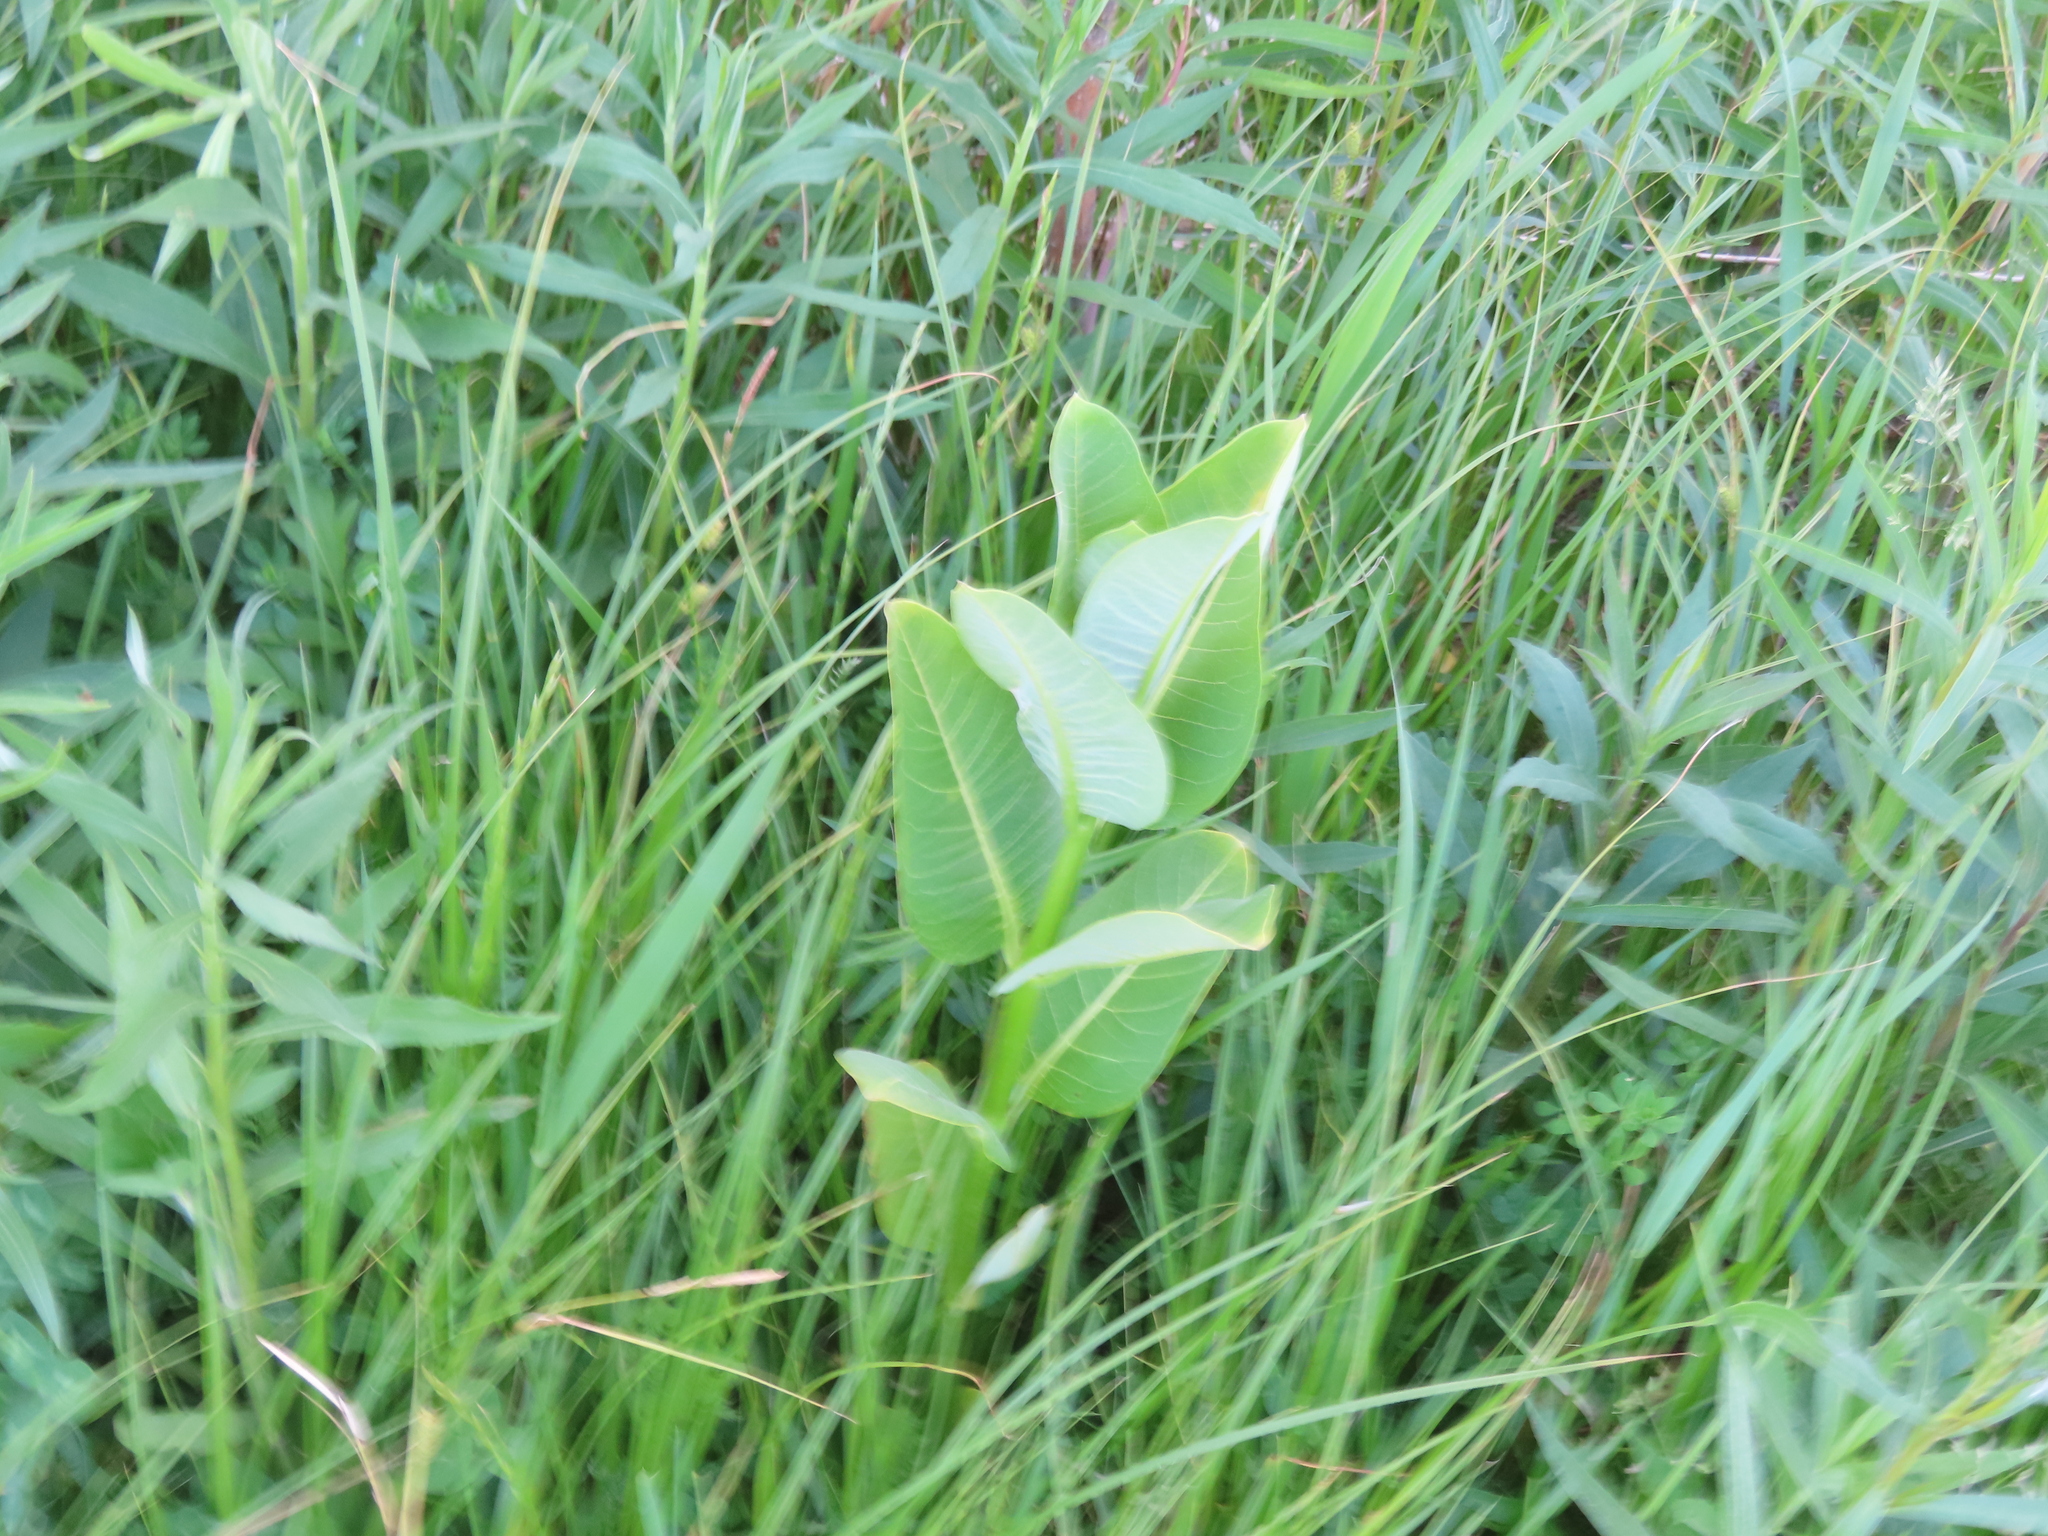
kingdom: Plantae
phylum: Tracheophyta
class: Magnoliopsida
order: Gentianales
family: Apocynaceae
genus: Asclepias
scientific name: Asclepias syriaca
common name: Common milkweed
